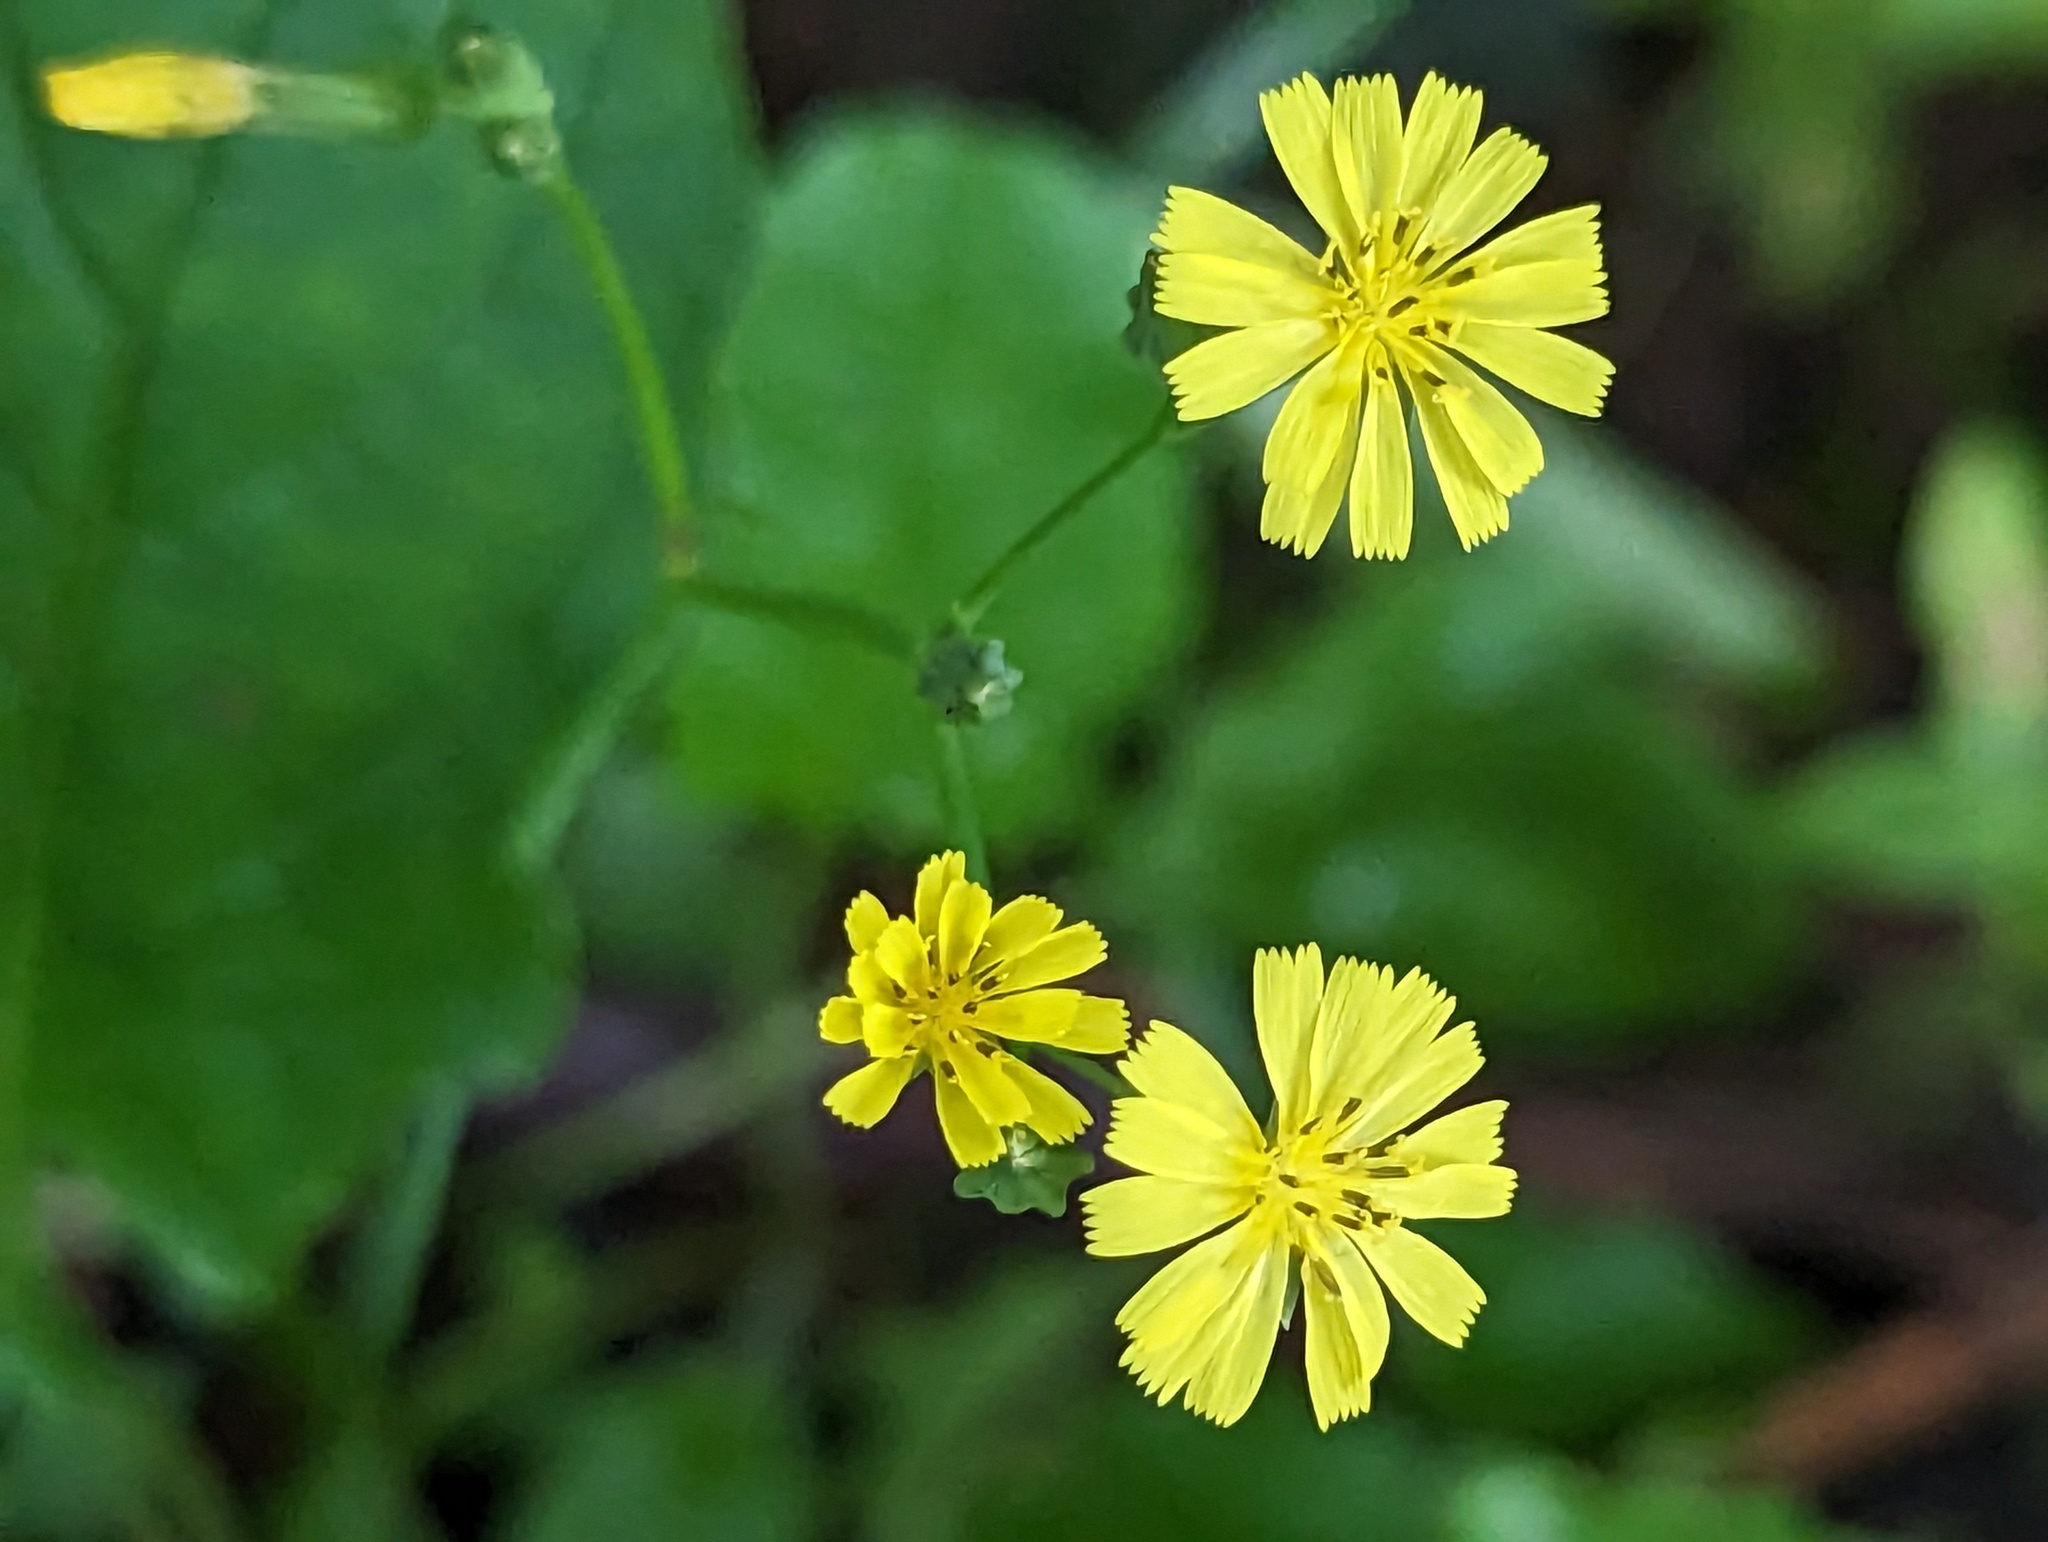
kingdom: Plantae
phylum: Tracheophyta
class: Magnoliopsida
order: Asterales
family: Asteraceae
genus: Youngia
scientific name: Youngia japonica
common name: Oriental false hawksbeard
